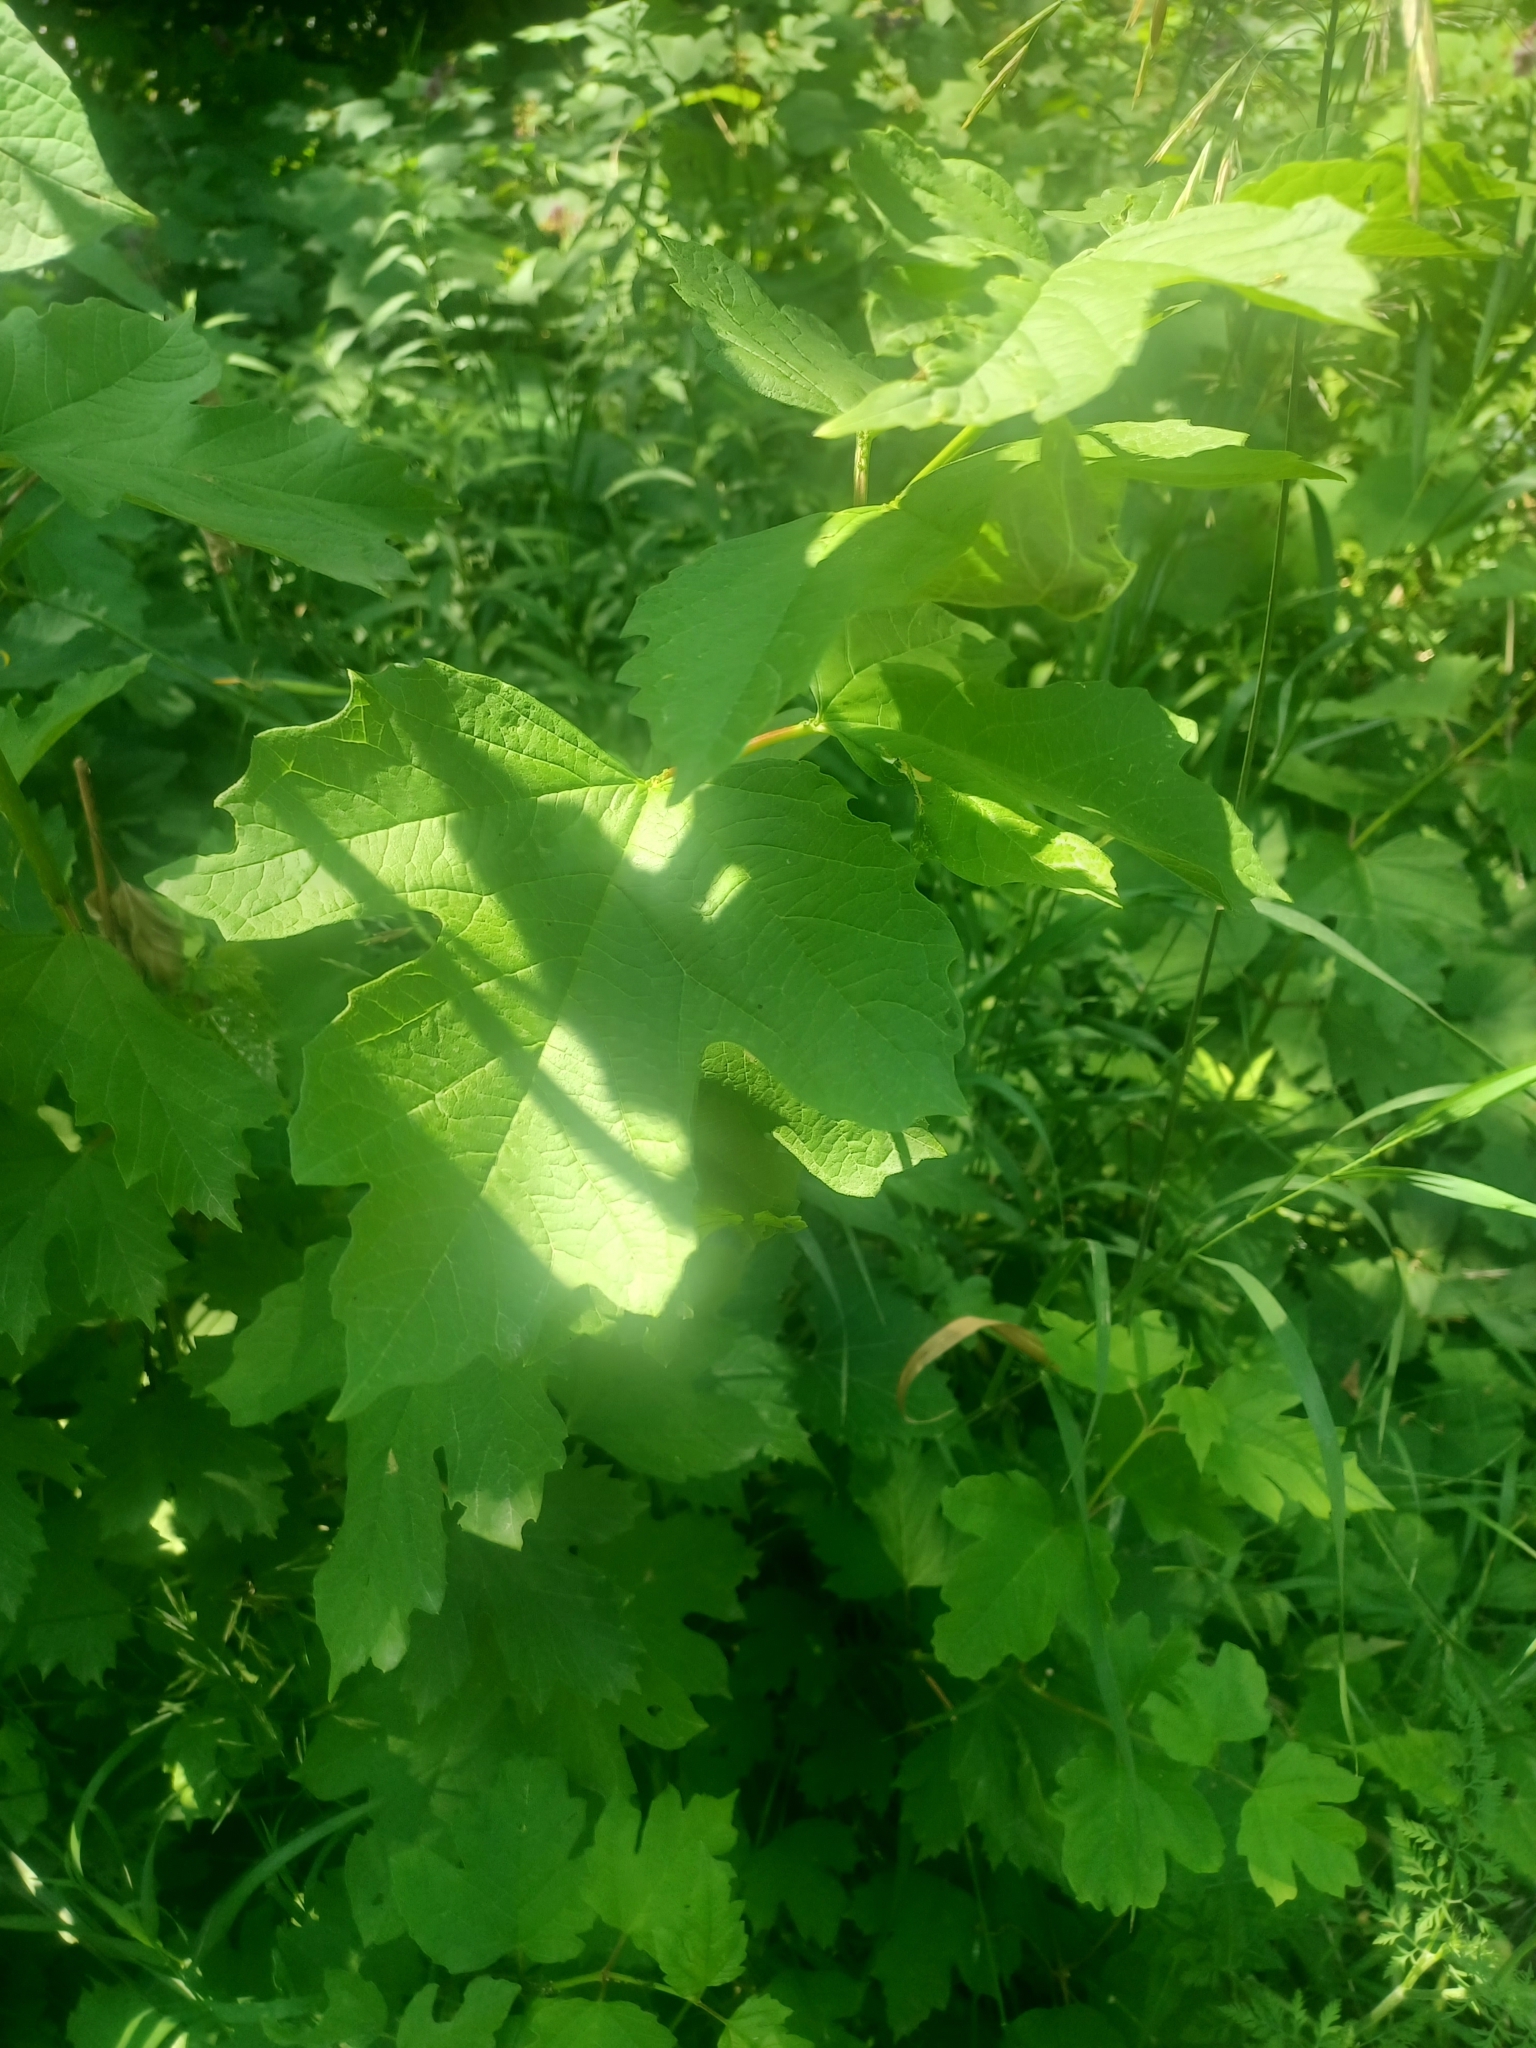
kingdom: Plantae
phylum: Tracheophyta
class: Magnoliopsida
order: Malvales
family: Malvaceae
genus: Alcea
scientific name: Alcea rosea
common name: Hollyhock
